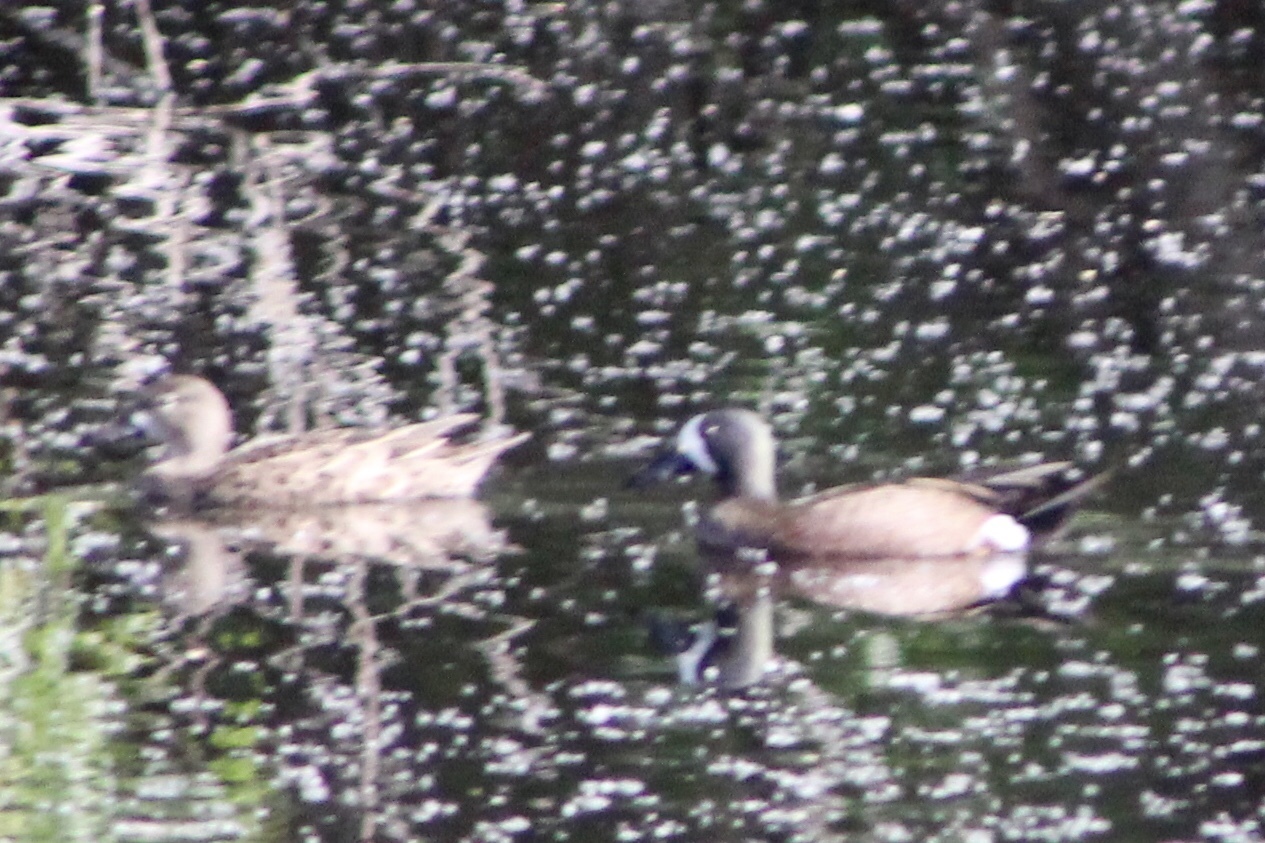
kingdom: Animalia
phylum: Chordata
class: Aves
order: Anseriformes
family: Anatidae
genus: Spatula
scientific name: Spatula discors
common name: Blue-winged teal
